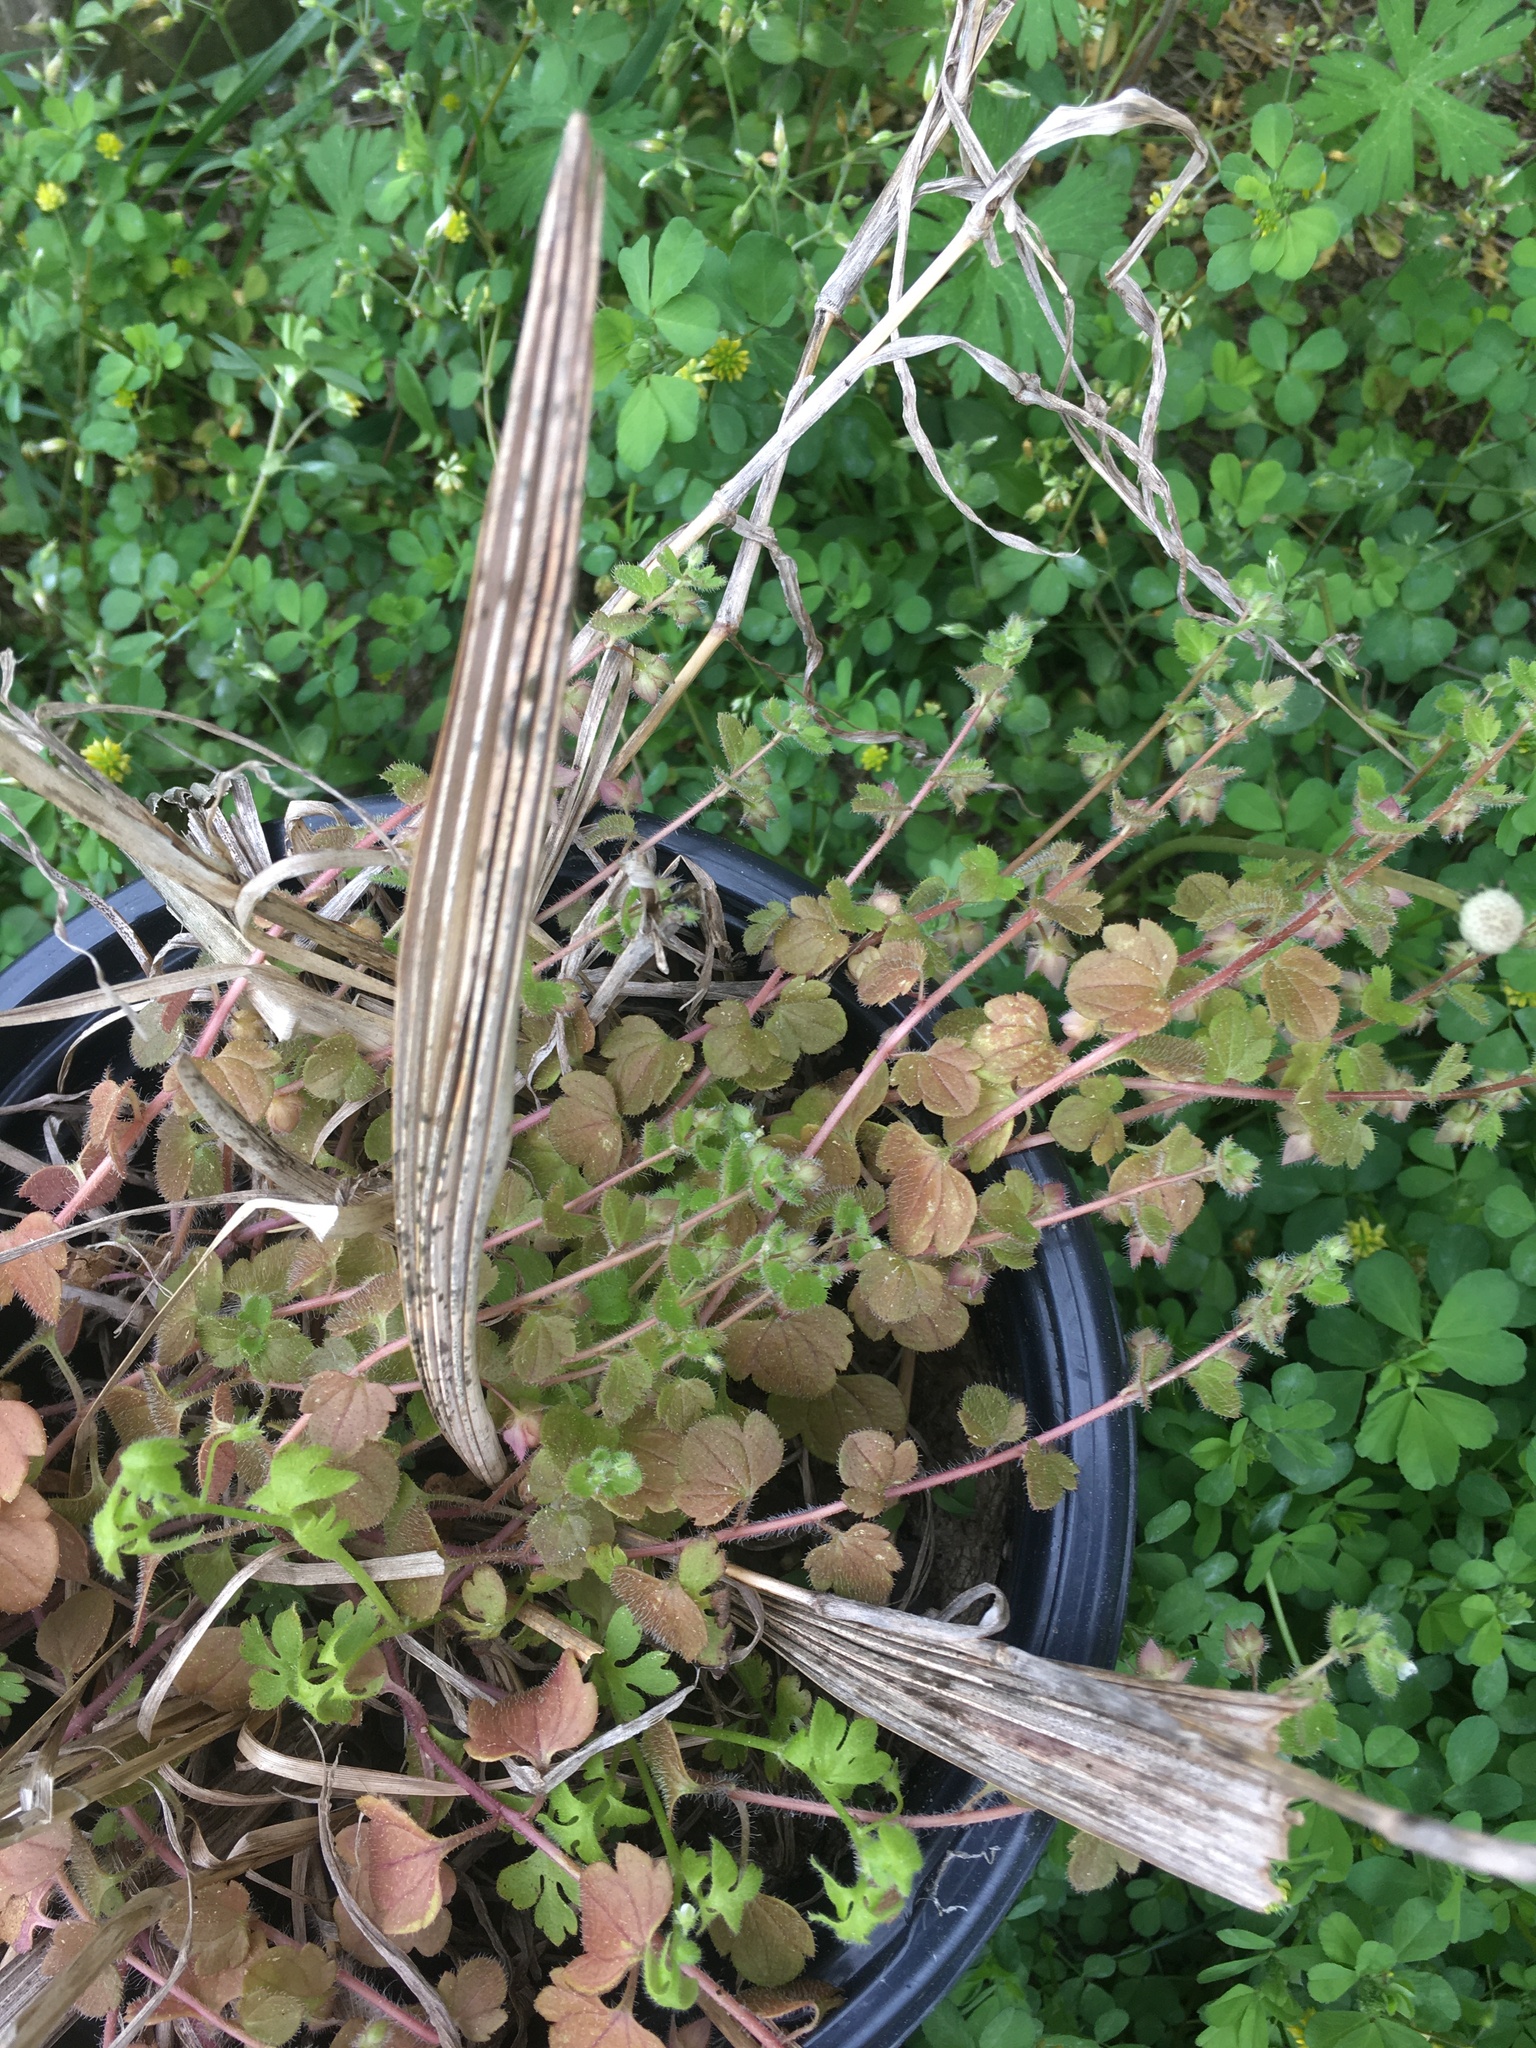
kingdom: Plantae
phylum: Tracheophyta
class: Magnoliopsida
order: Lamiales
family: Plantaginaceae
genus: Veronica
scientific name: Veronica hederifolia
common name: Ivy-leaved speedwell
